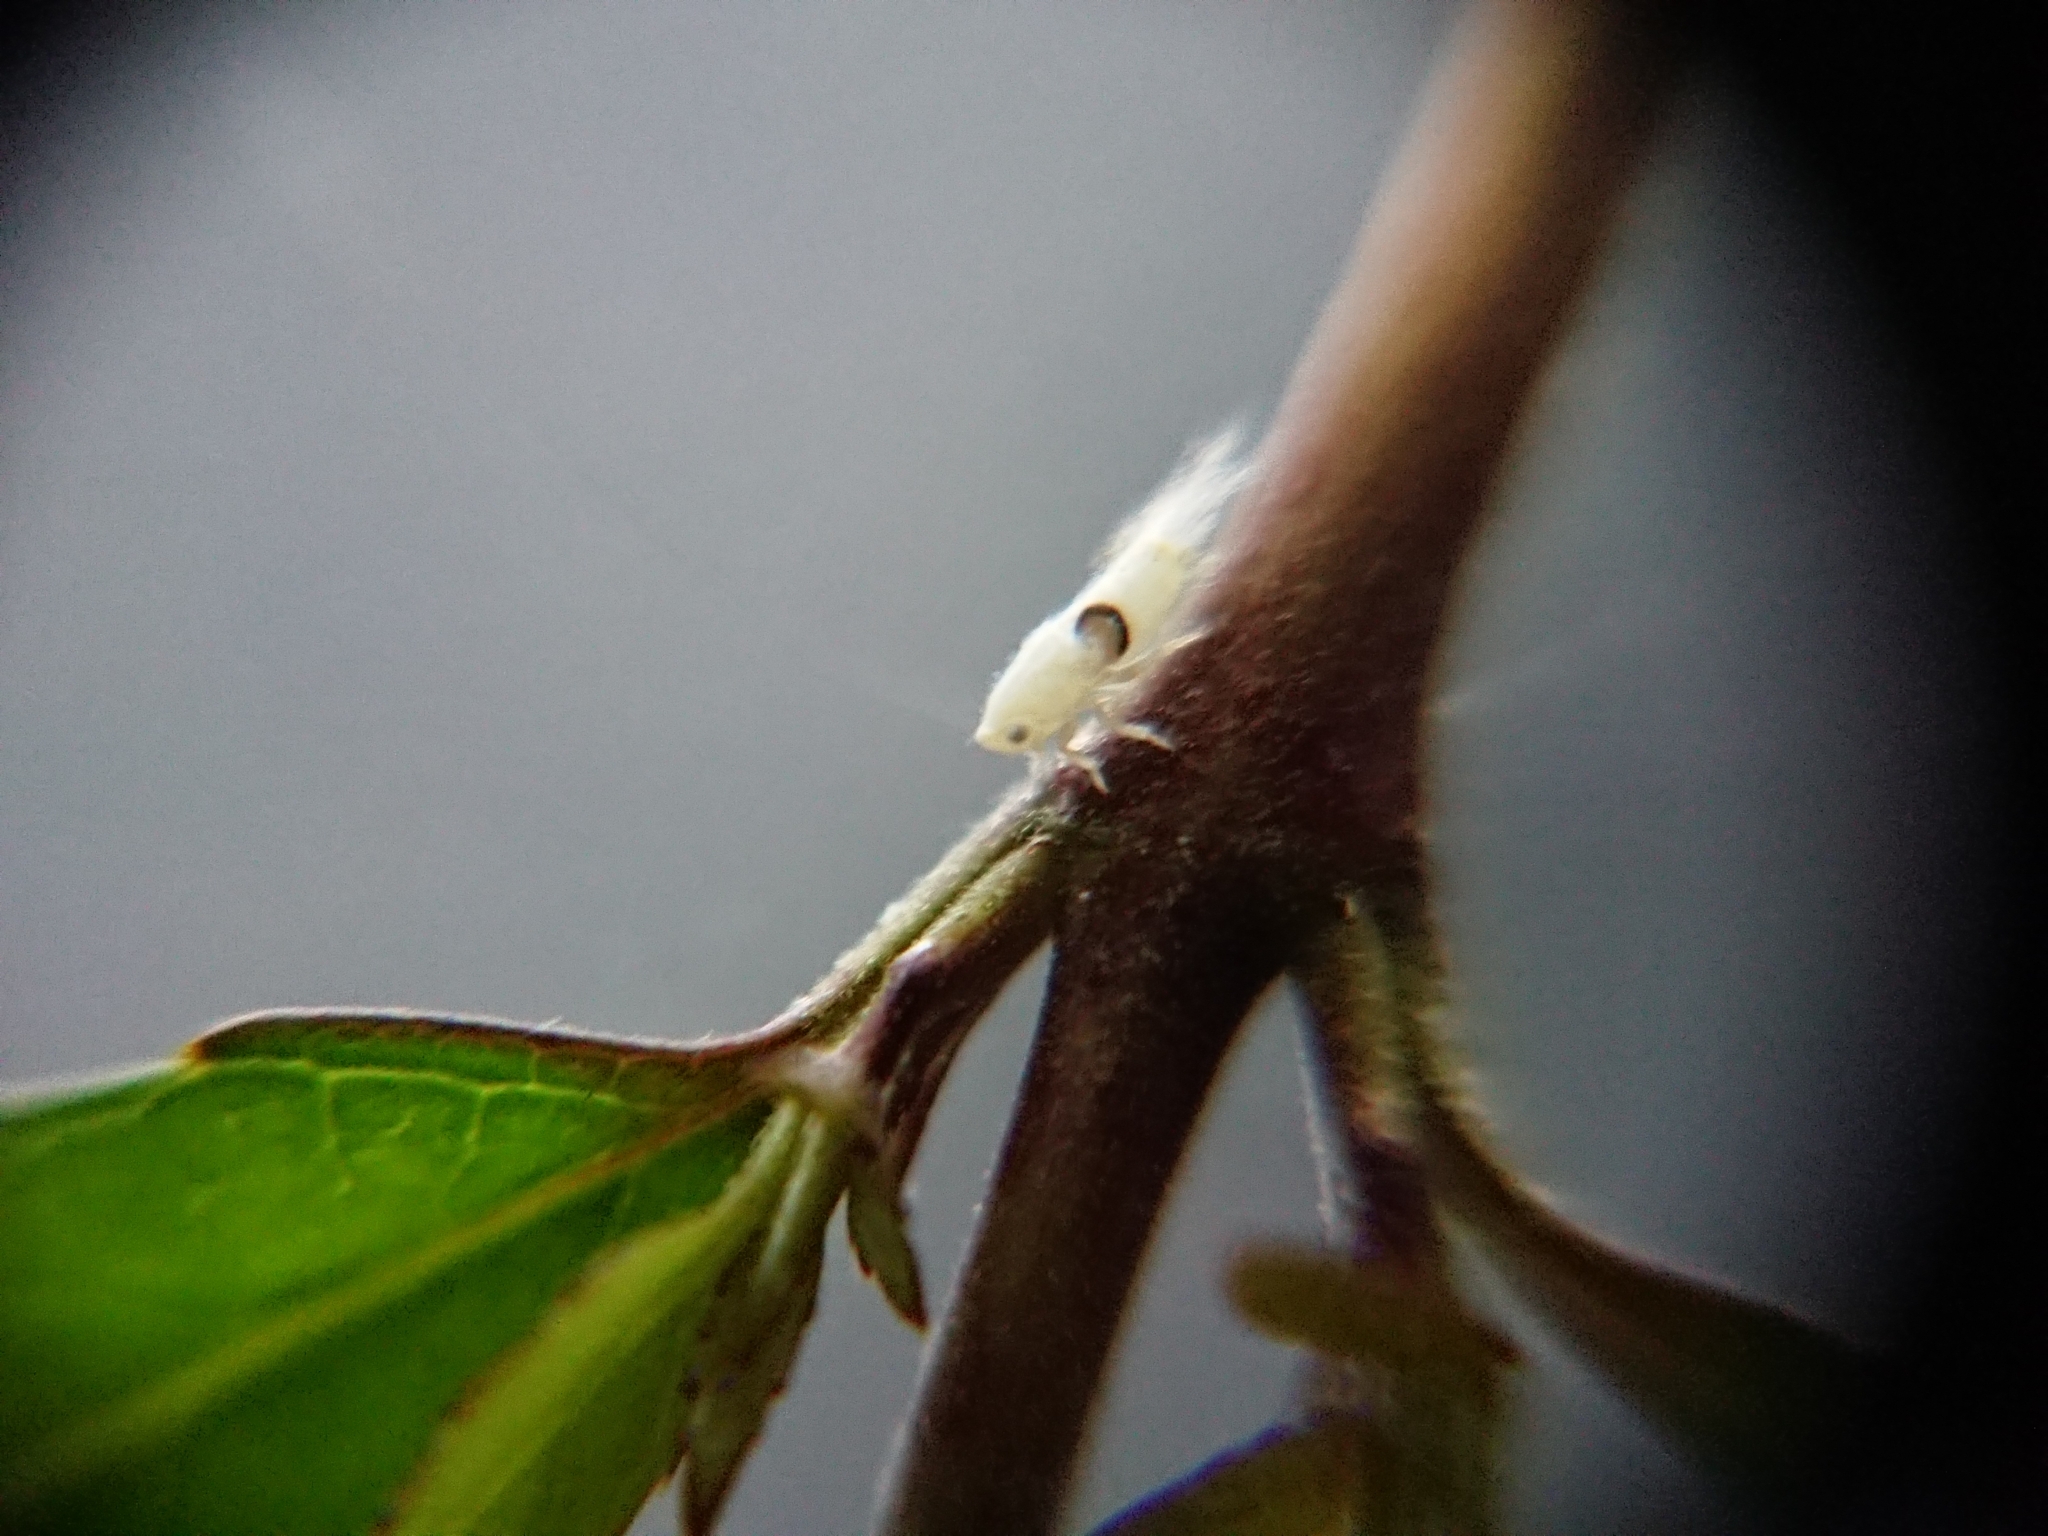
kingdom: Animalia
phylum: Arthropoda
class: Insecta
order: Hymenoptera
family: Dryinidae
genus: Dryinus
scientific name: Dryinus koebelei
